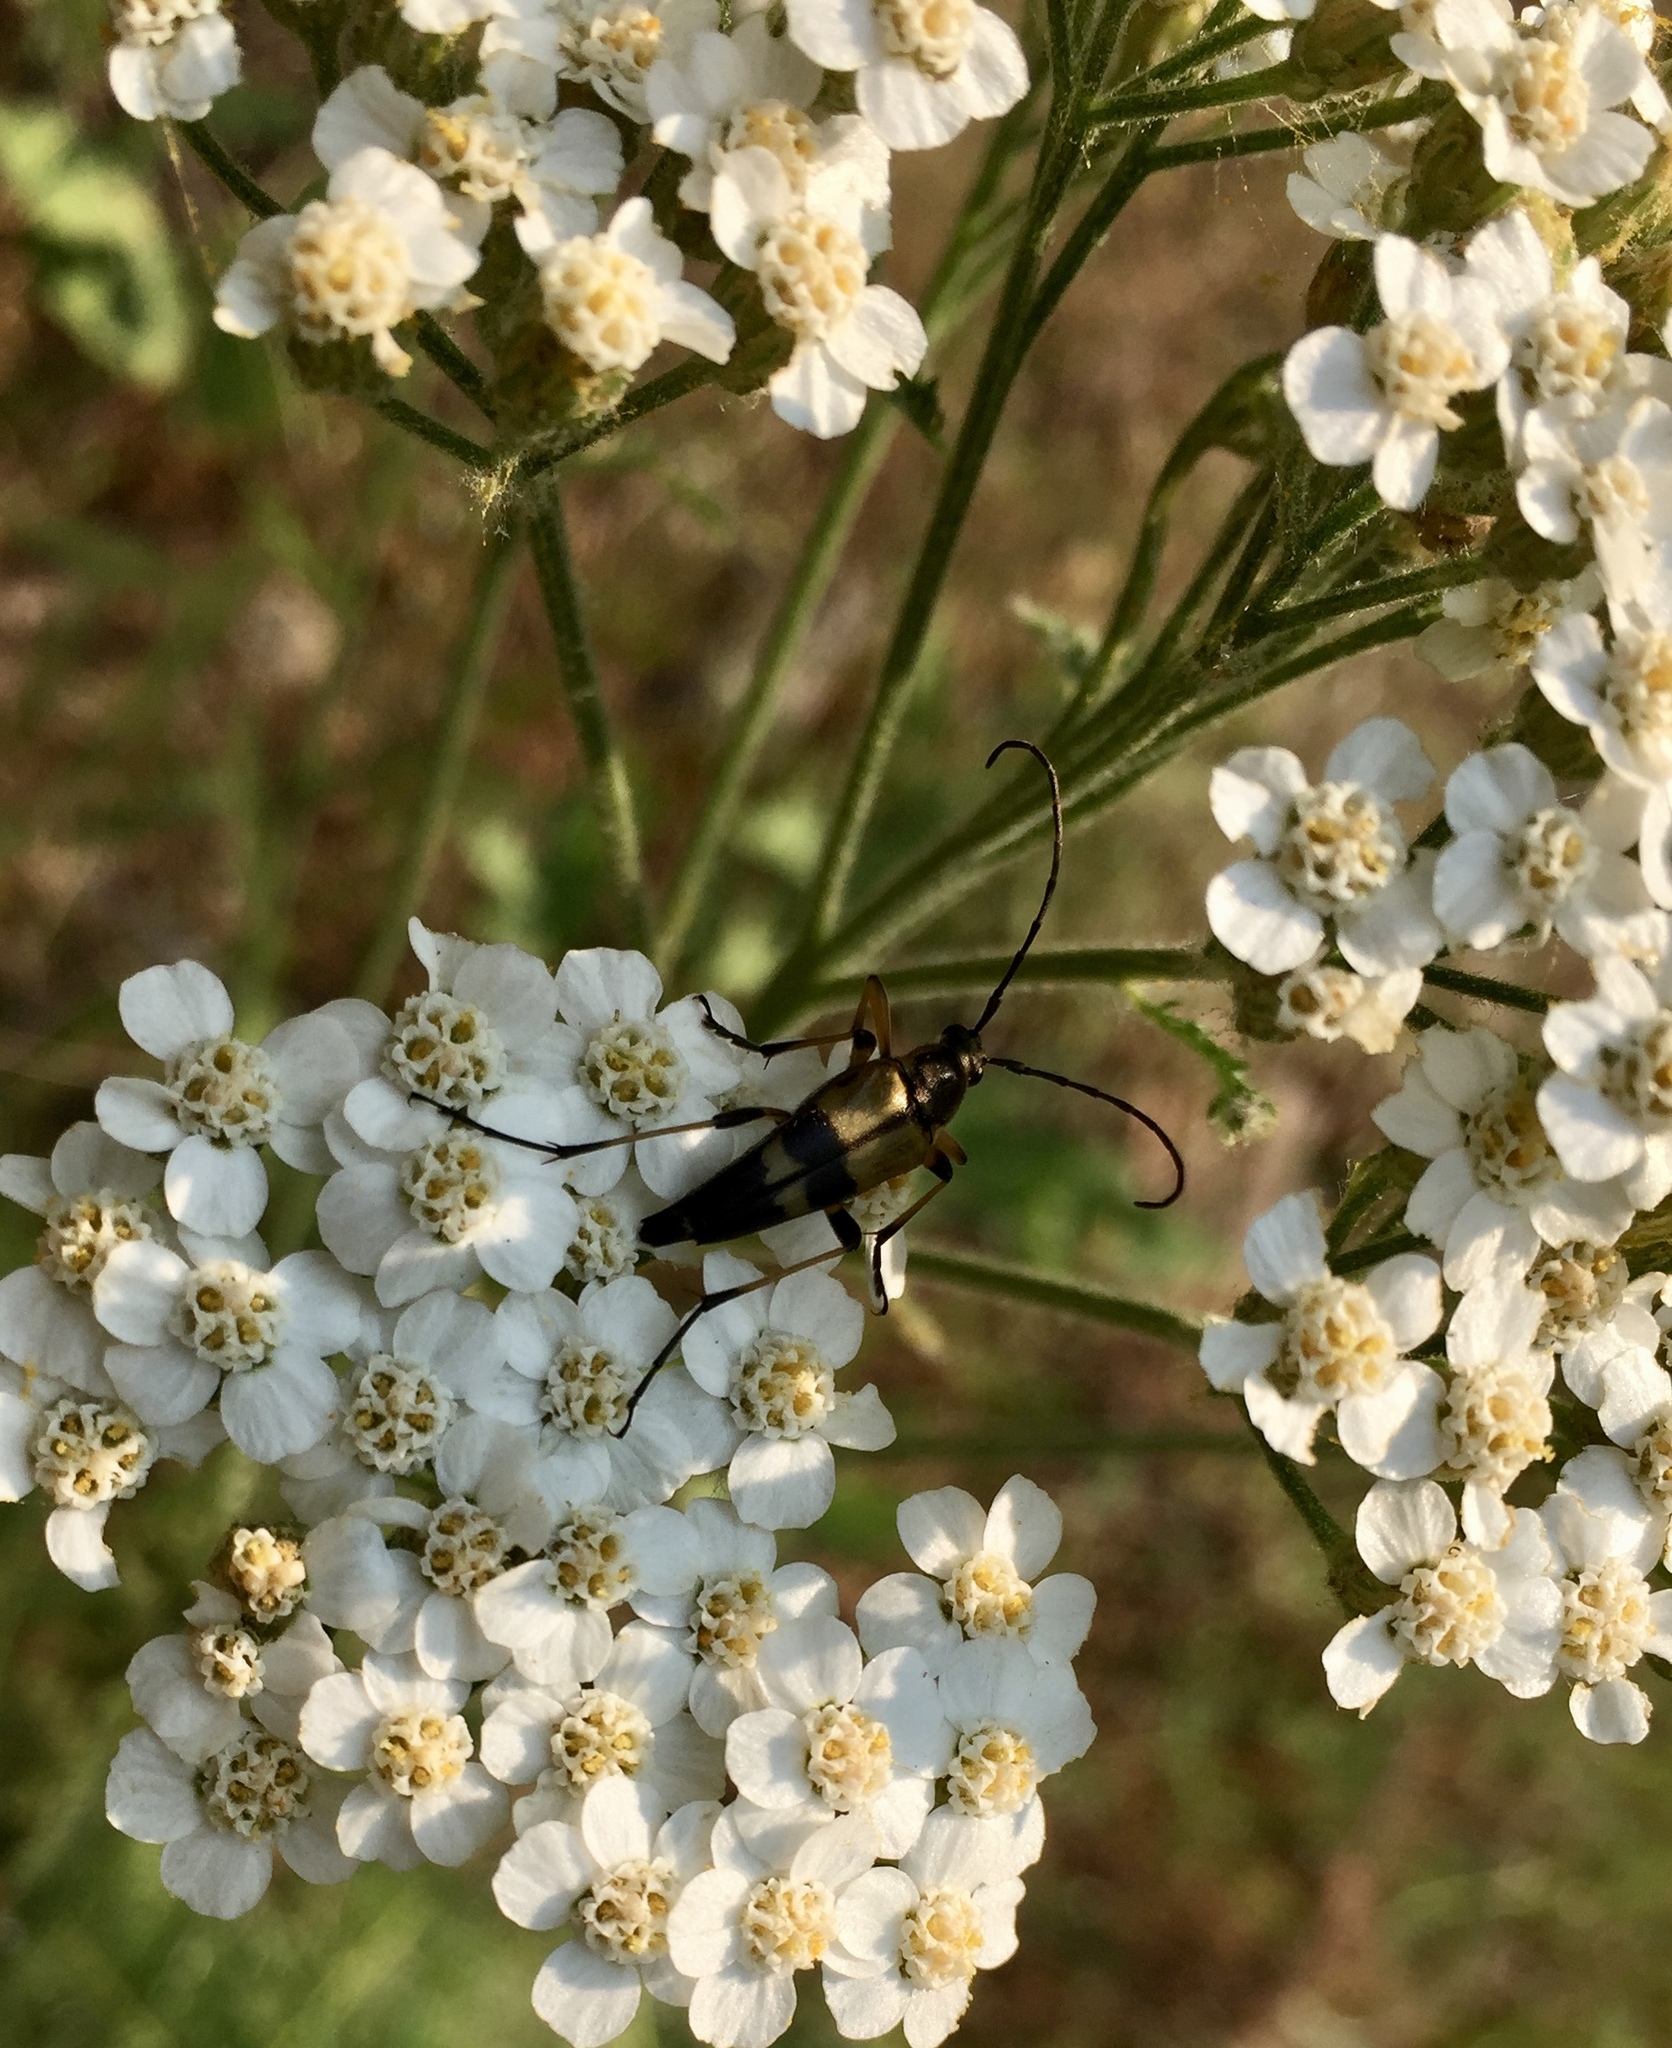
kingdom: Animalia
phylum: Arthropoda
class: Insecta
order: Coleoptera
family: Cerambycidae
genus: Etorofus
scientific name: Etorofus obliteratus
